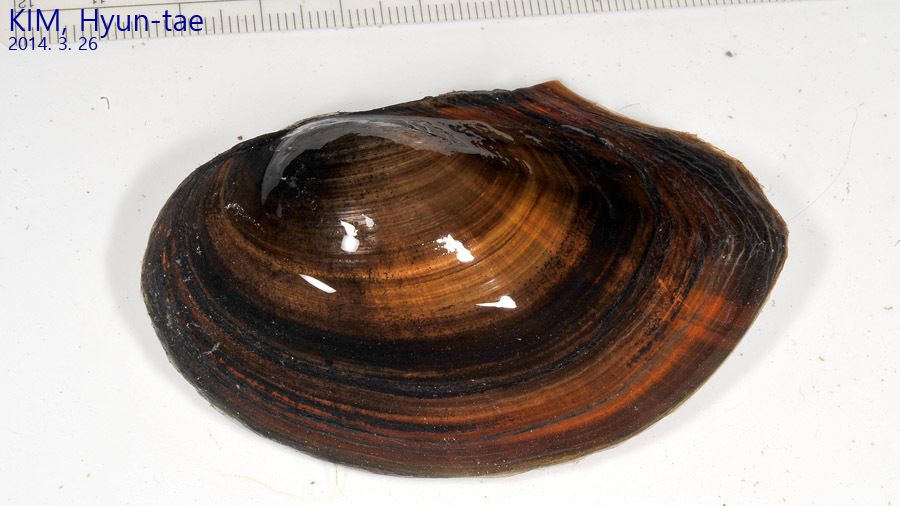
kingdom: Animalia
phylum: Mollusca
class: Bivalvia
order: Unionida
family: Unionidae
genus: Sinanodonta
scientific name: Sinanodonta lauta
